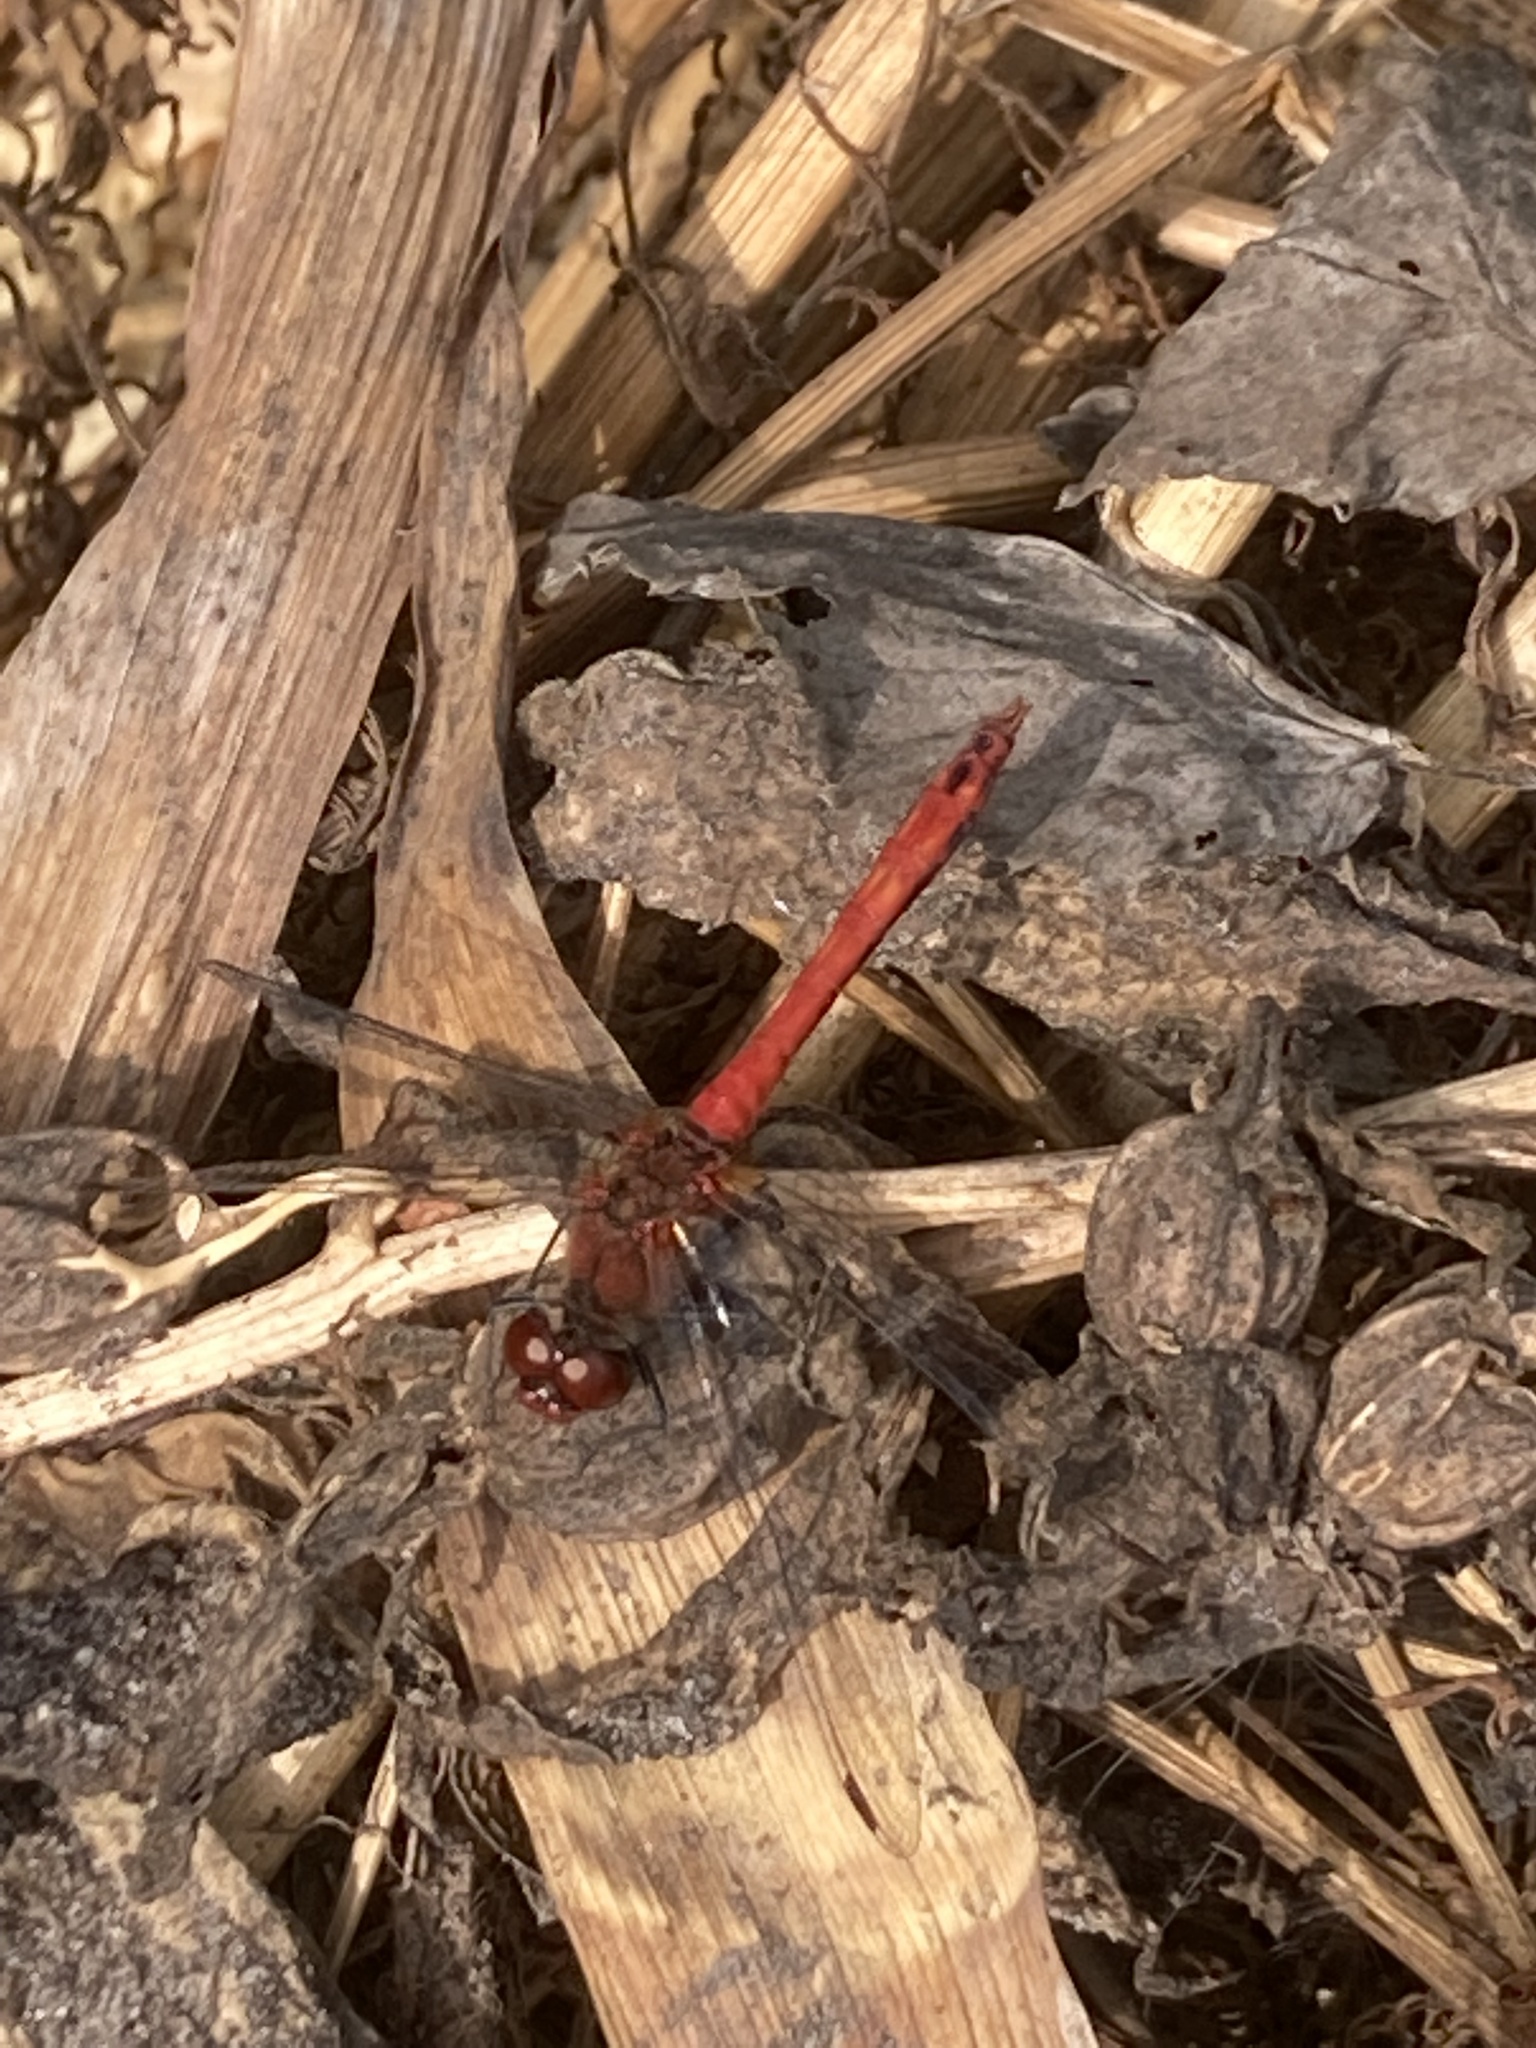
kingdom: Animalia
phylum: Arthropoda
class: Insecta
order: Odonata
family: Libellulidae
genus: Sympetrum
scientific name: Sympetrum sanguineum
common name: Ruddy darter
